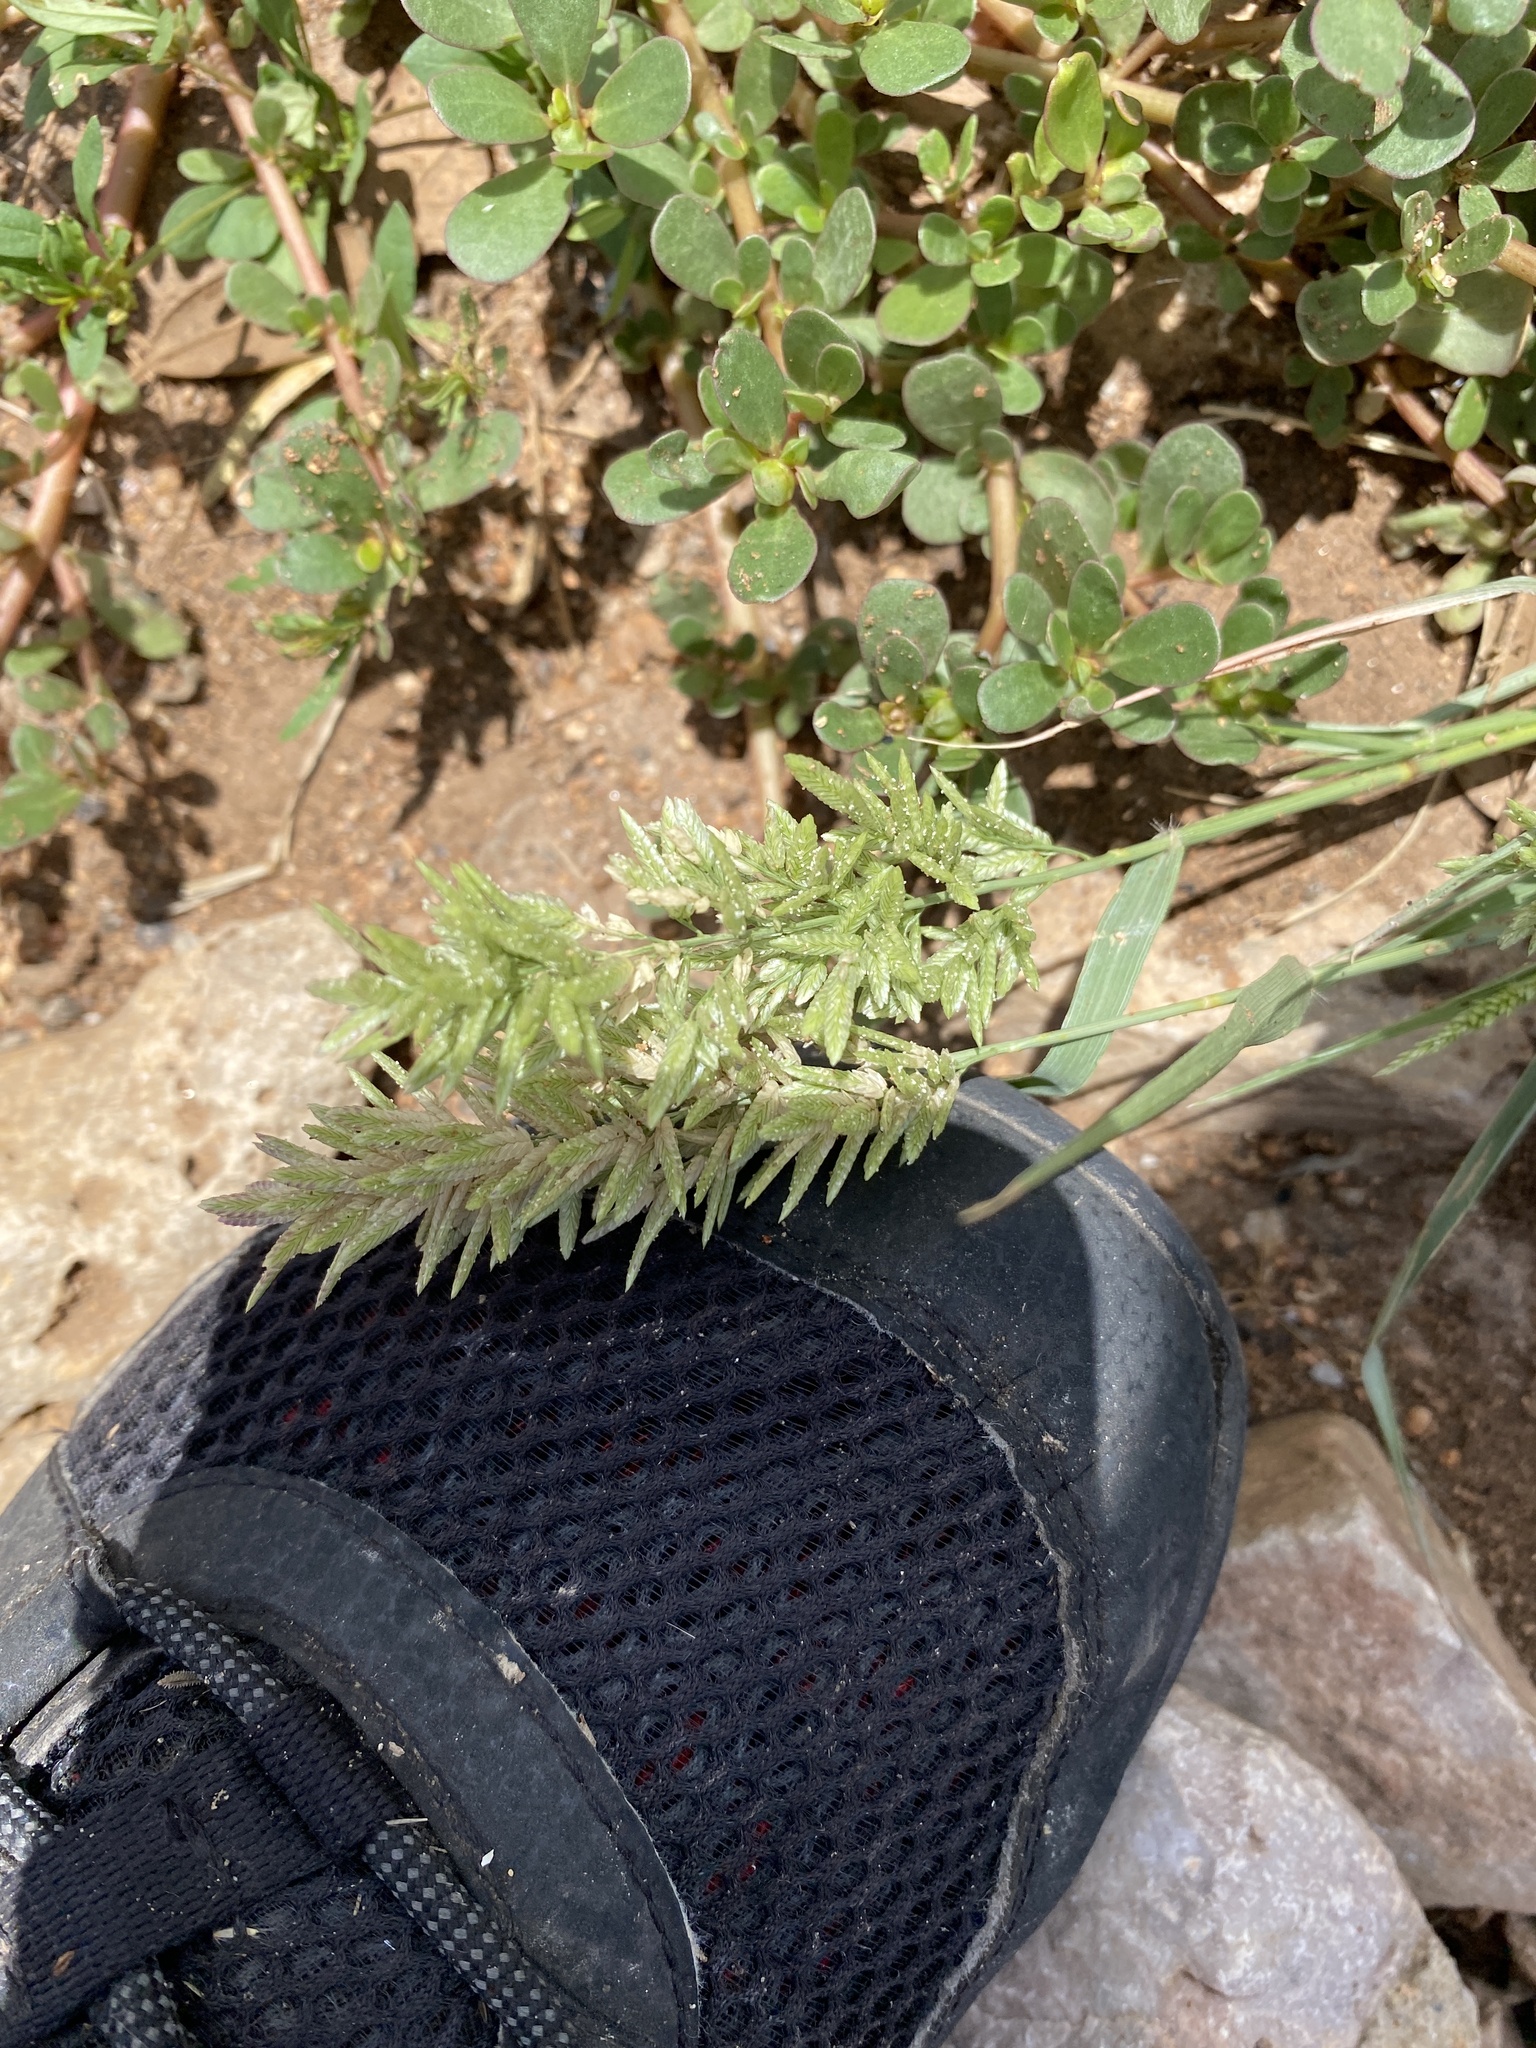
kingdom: Plantae
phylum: Tracheophyta
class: Liliopsida
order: Poales
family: Poaceae
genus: Eragrostis
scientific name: Eragrostis cilianensis
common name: Stinkgrass
